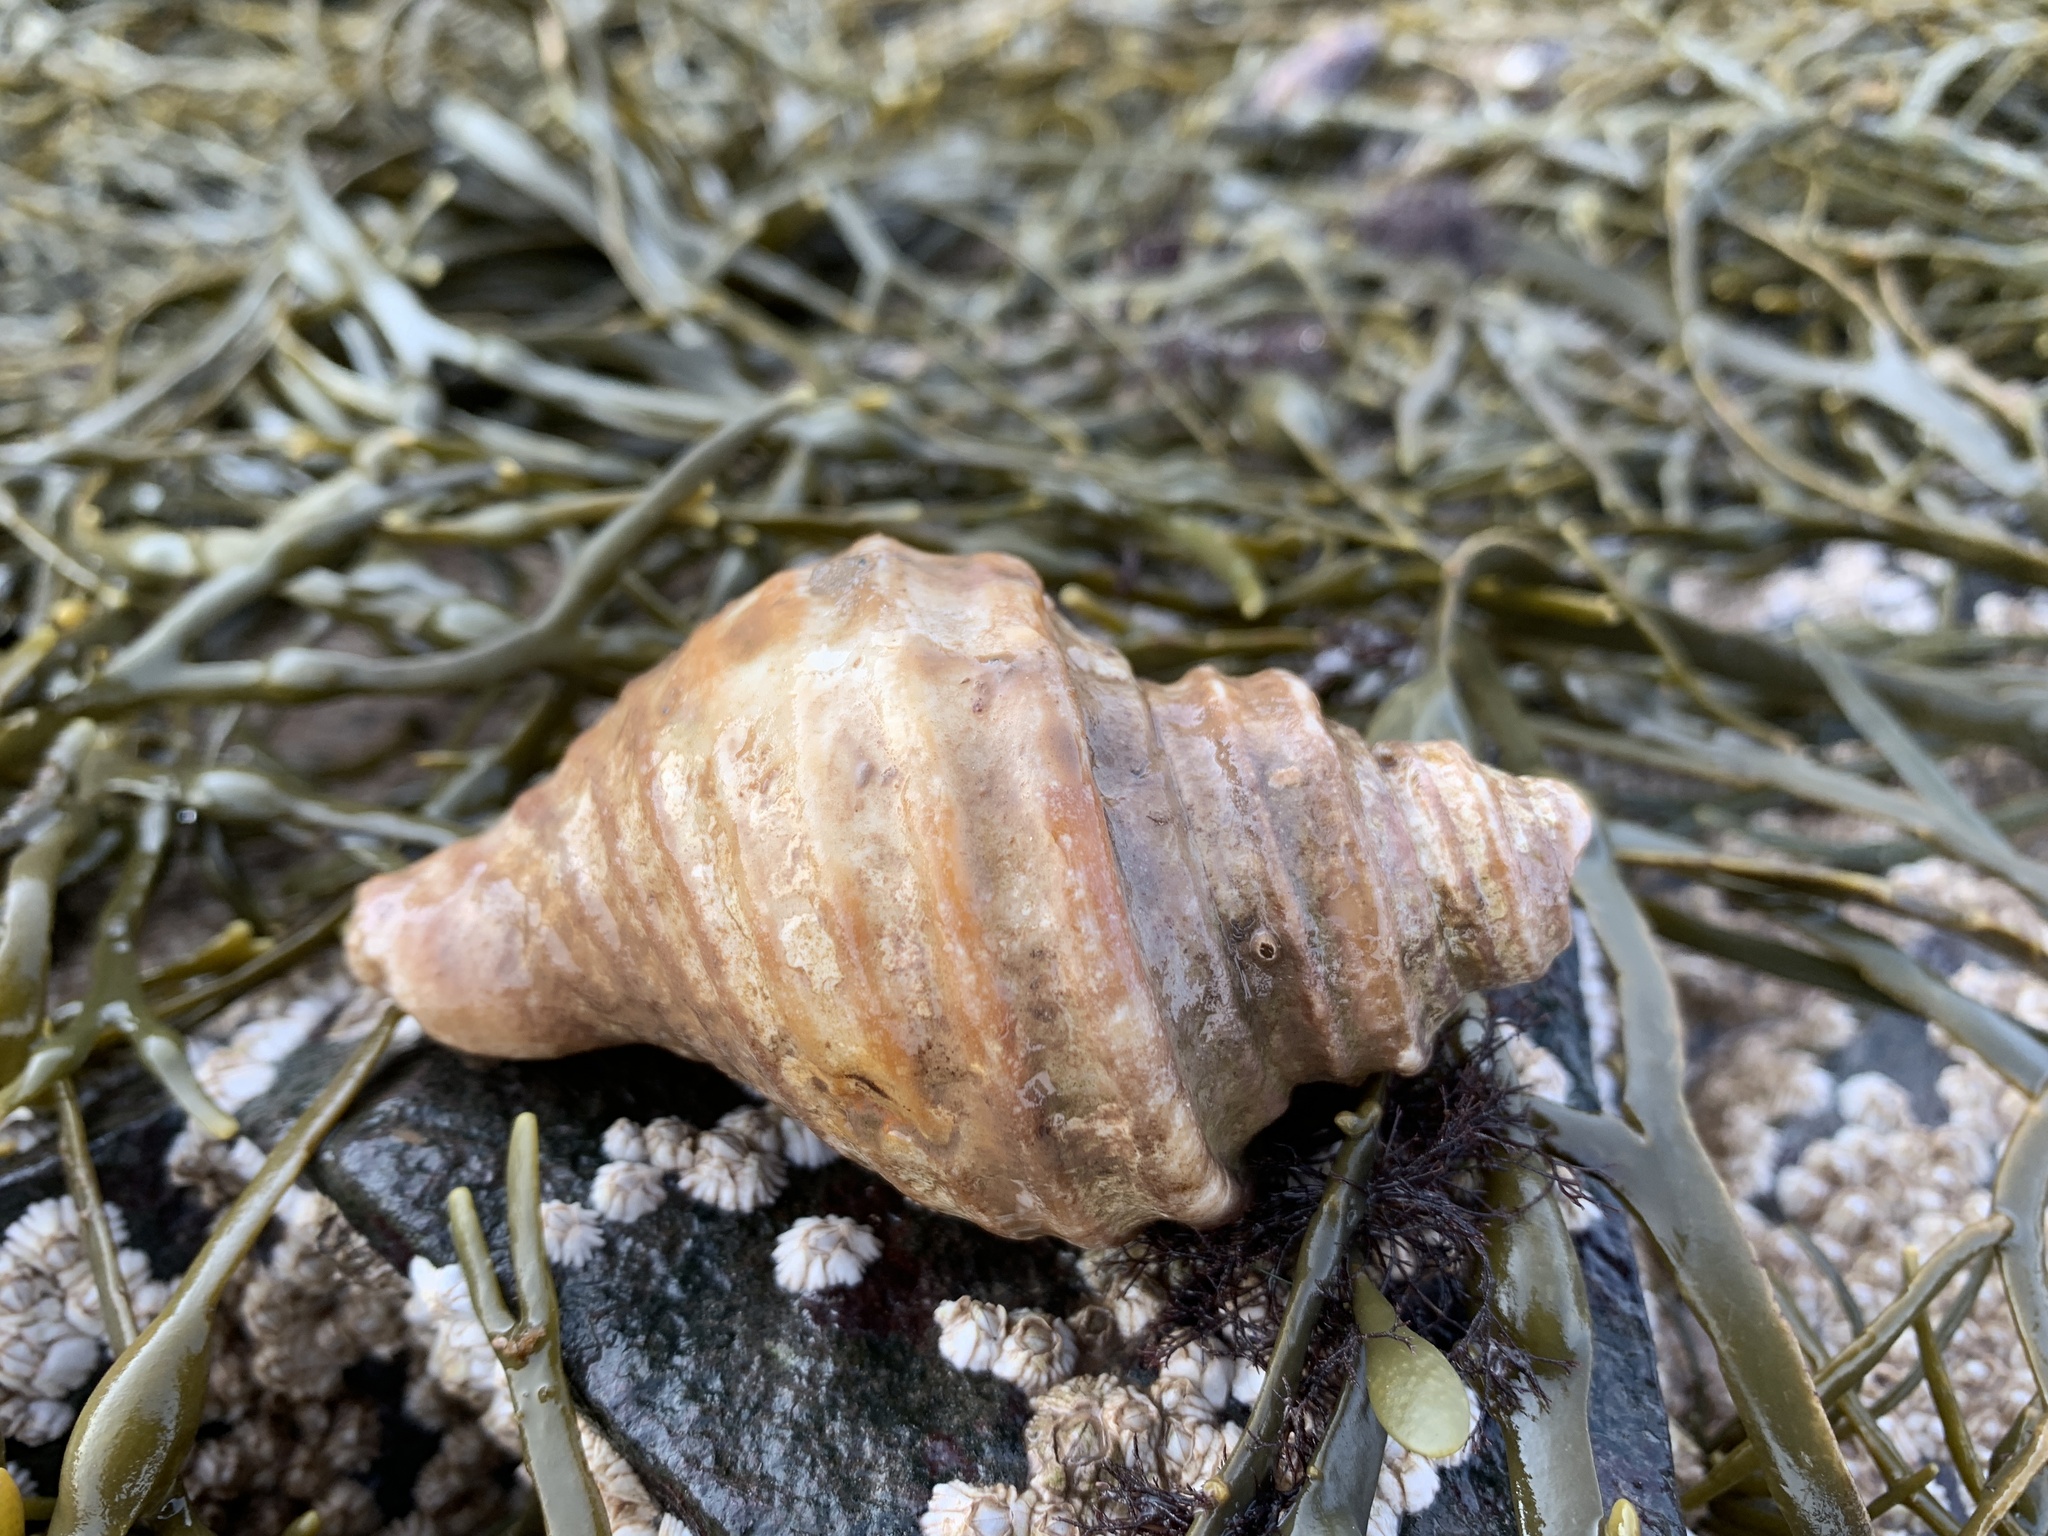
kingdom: Animalia
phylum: Mollusca
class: Gastropoda
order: Neogastropoda
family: Buccinidae
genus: Neptunea
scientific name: Neptunea decemcostata
